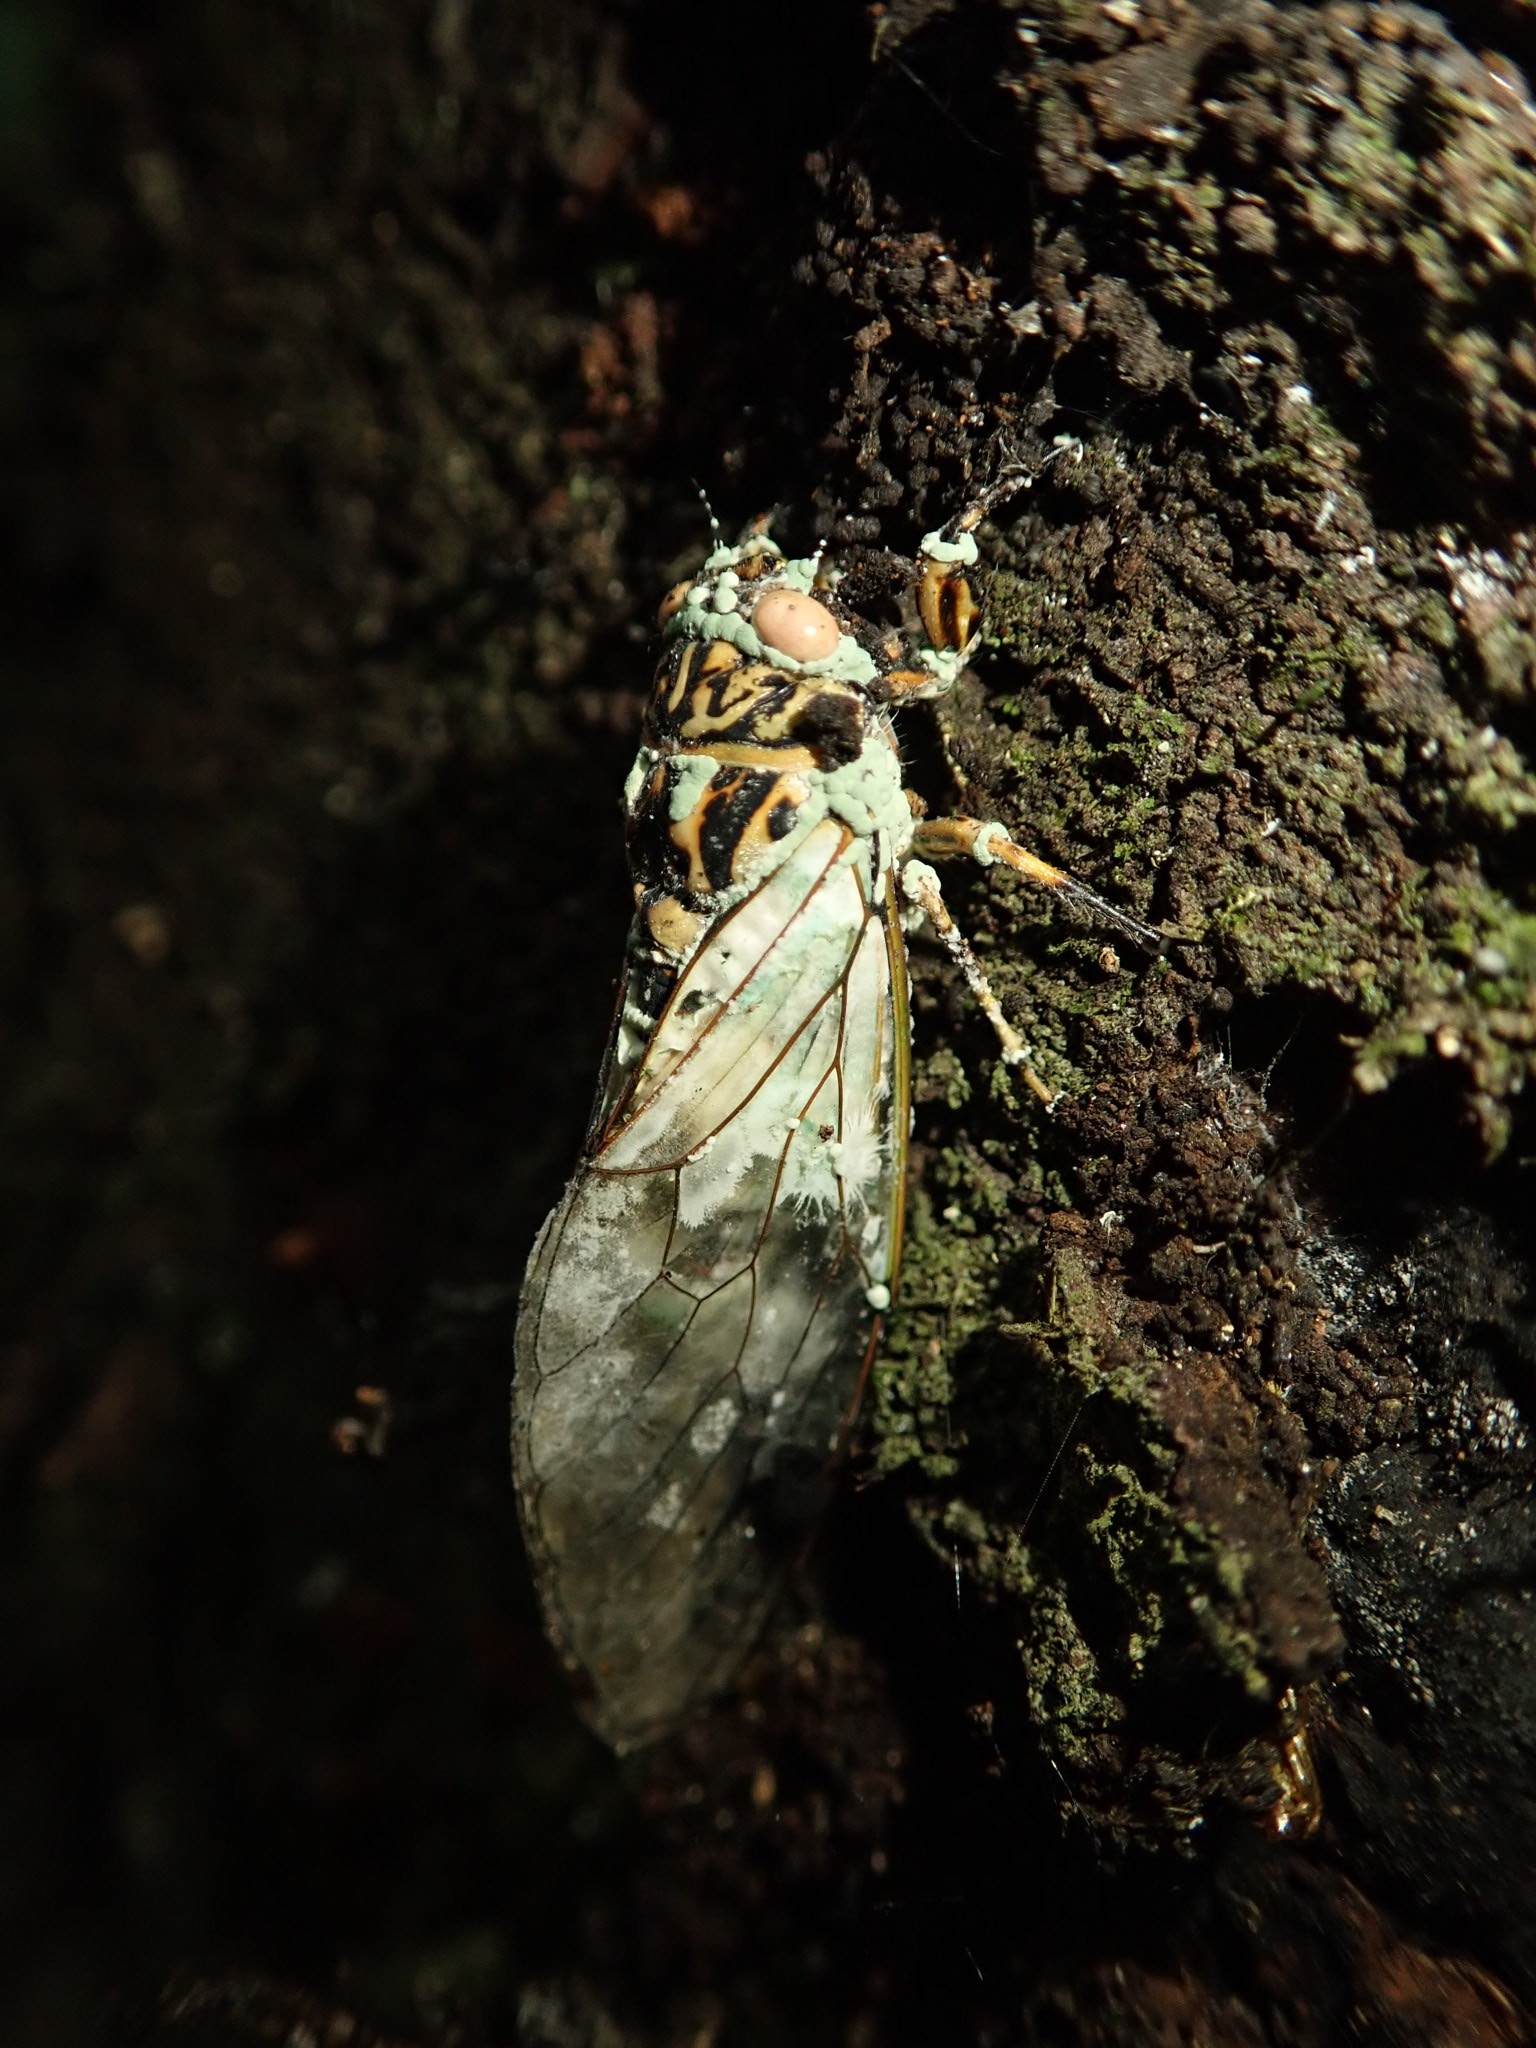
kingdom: Fungi
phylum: Ascomycota
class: Sordariomycetes
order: Hypocreales
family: Clavicipitaceae
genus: Metarhizium
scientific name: Metarhizium
